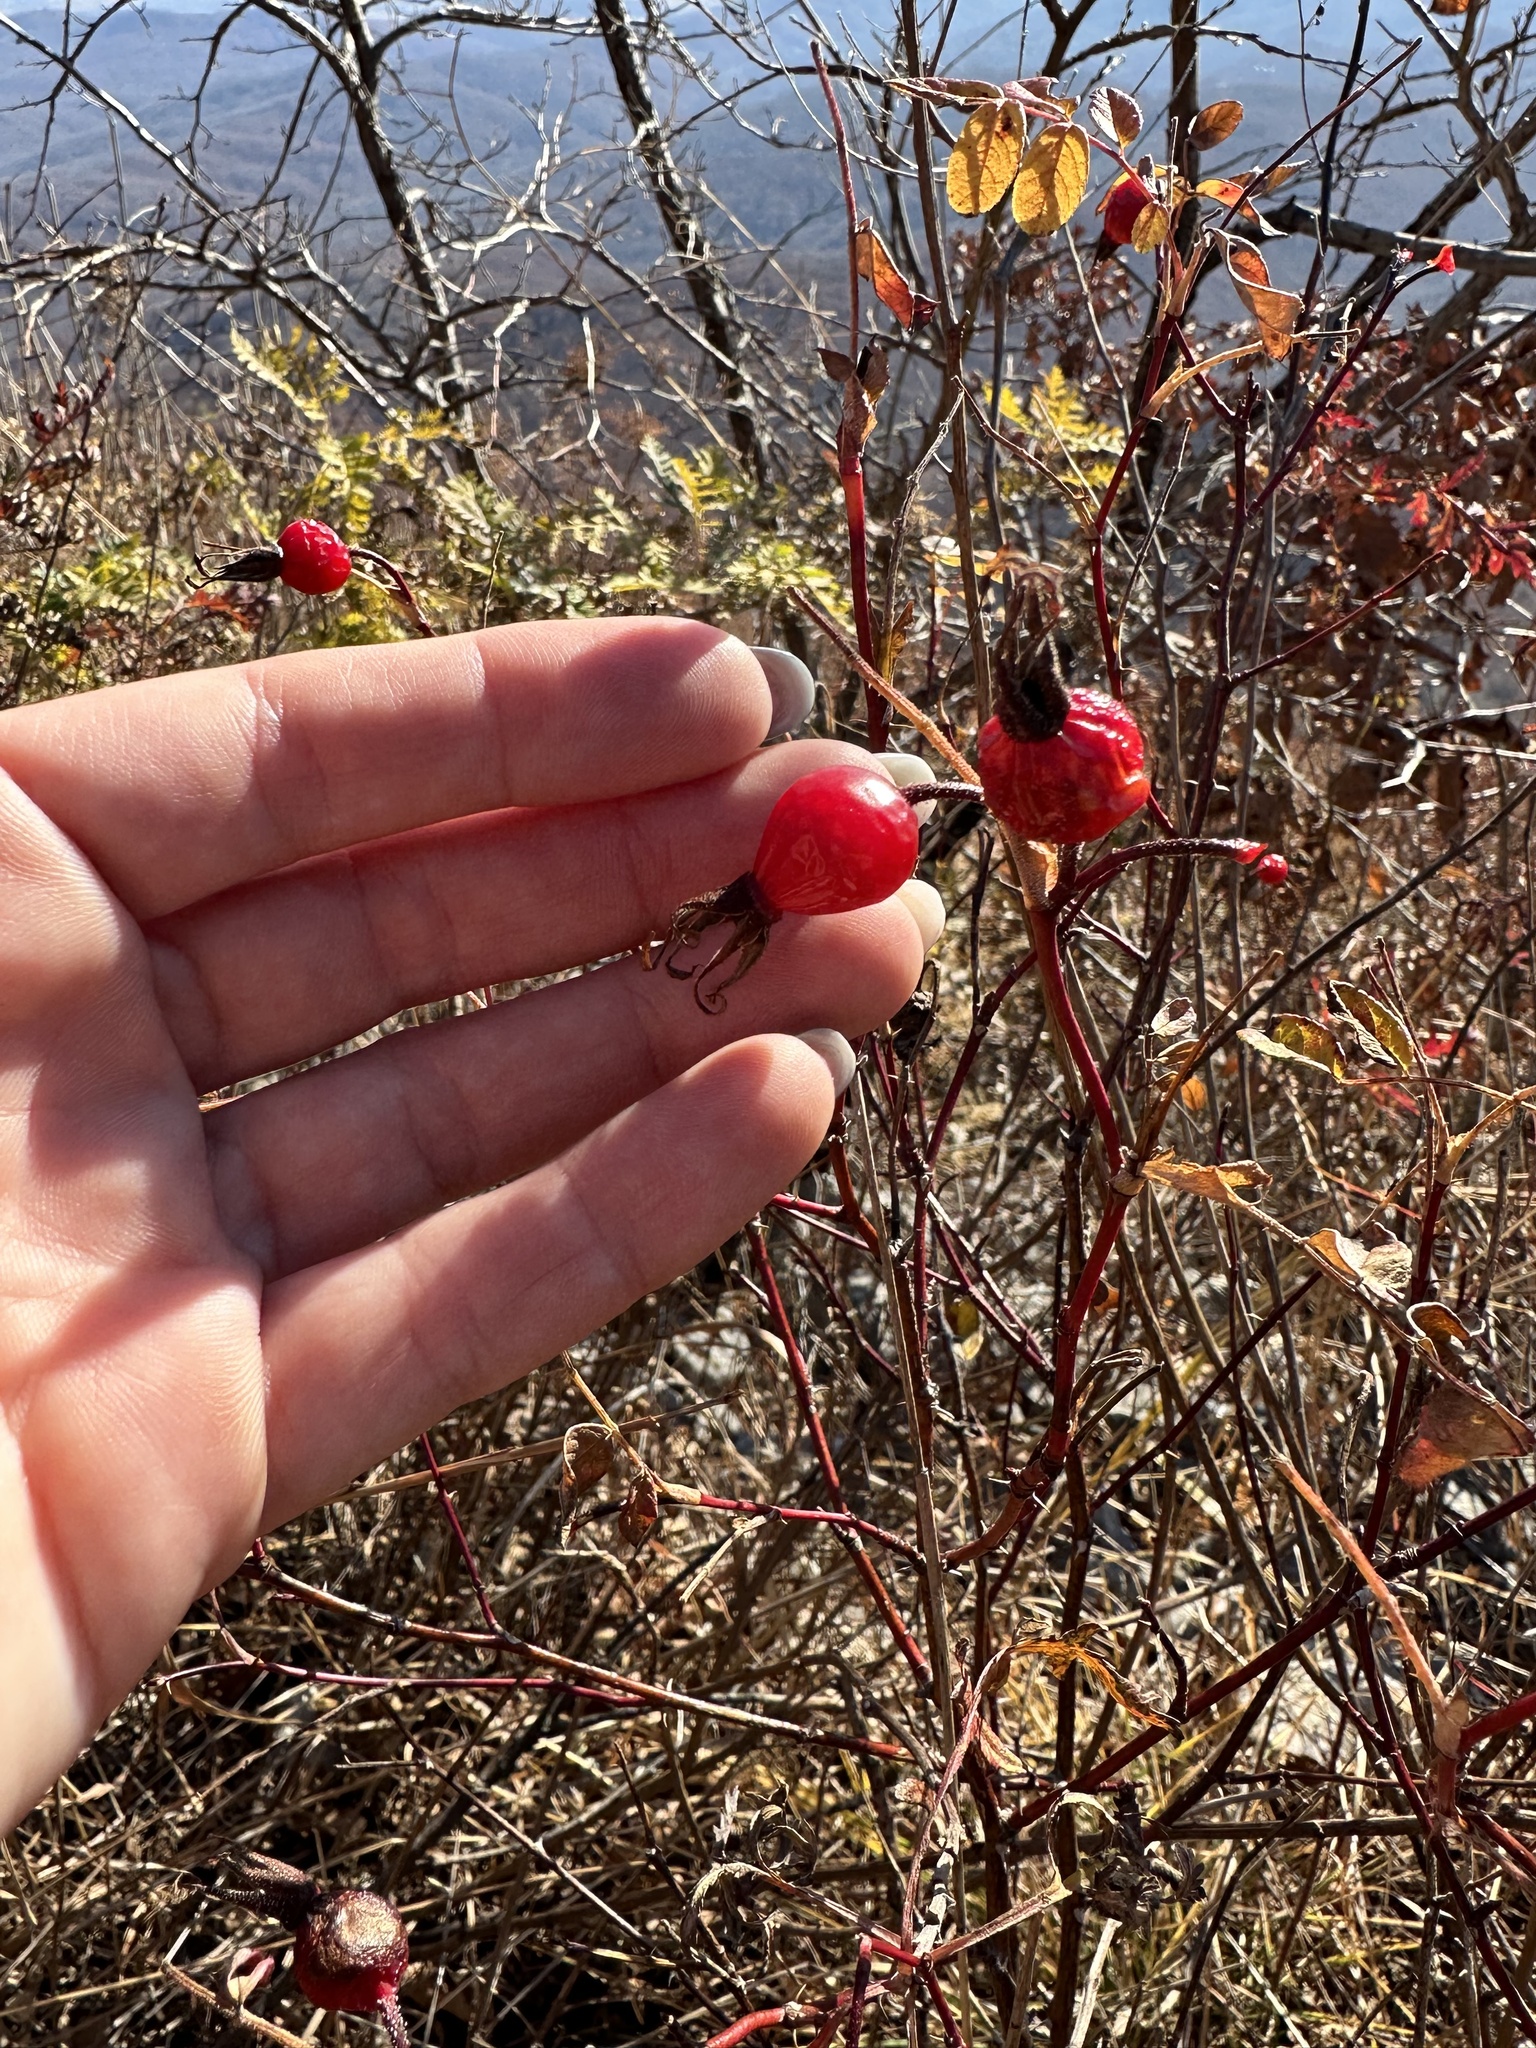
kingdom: Plantae
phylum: Tracheophyta
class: Magnoliopsida
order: Rosales
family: Rosaceae
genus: Rosa
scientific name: Rosa davurica
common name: Amur rose
